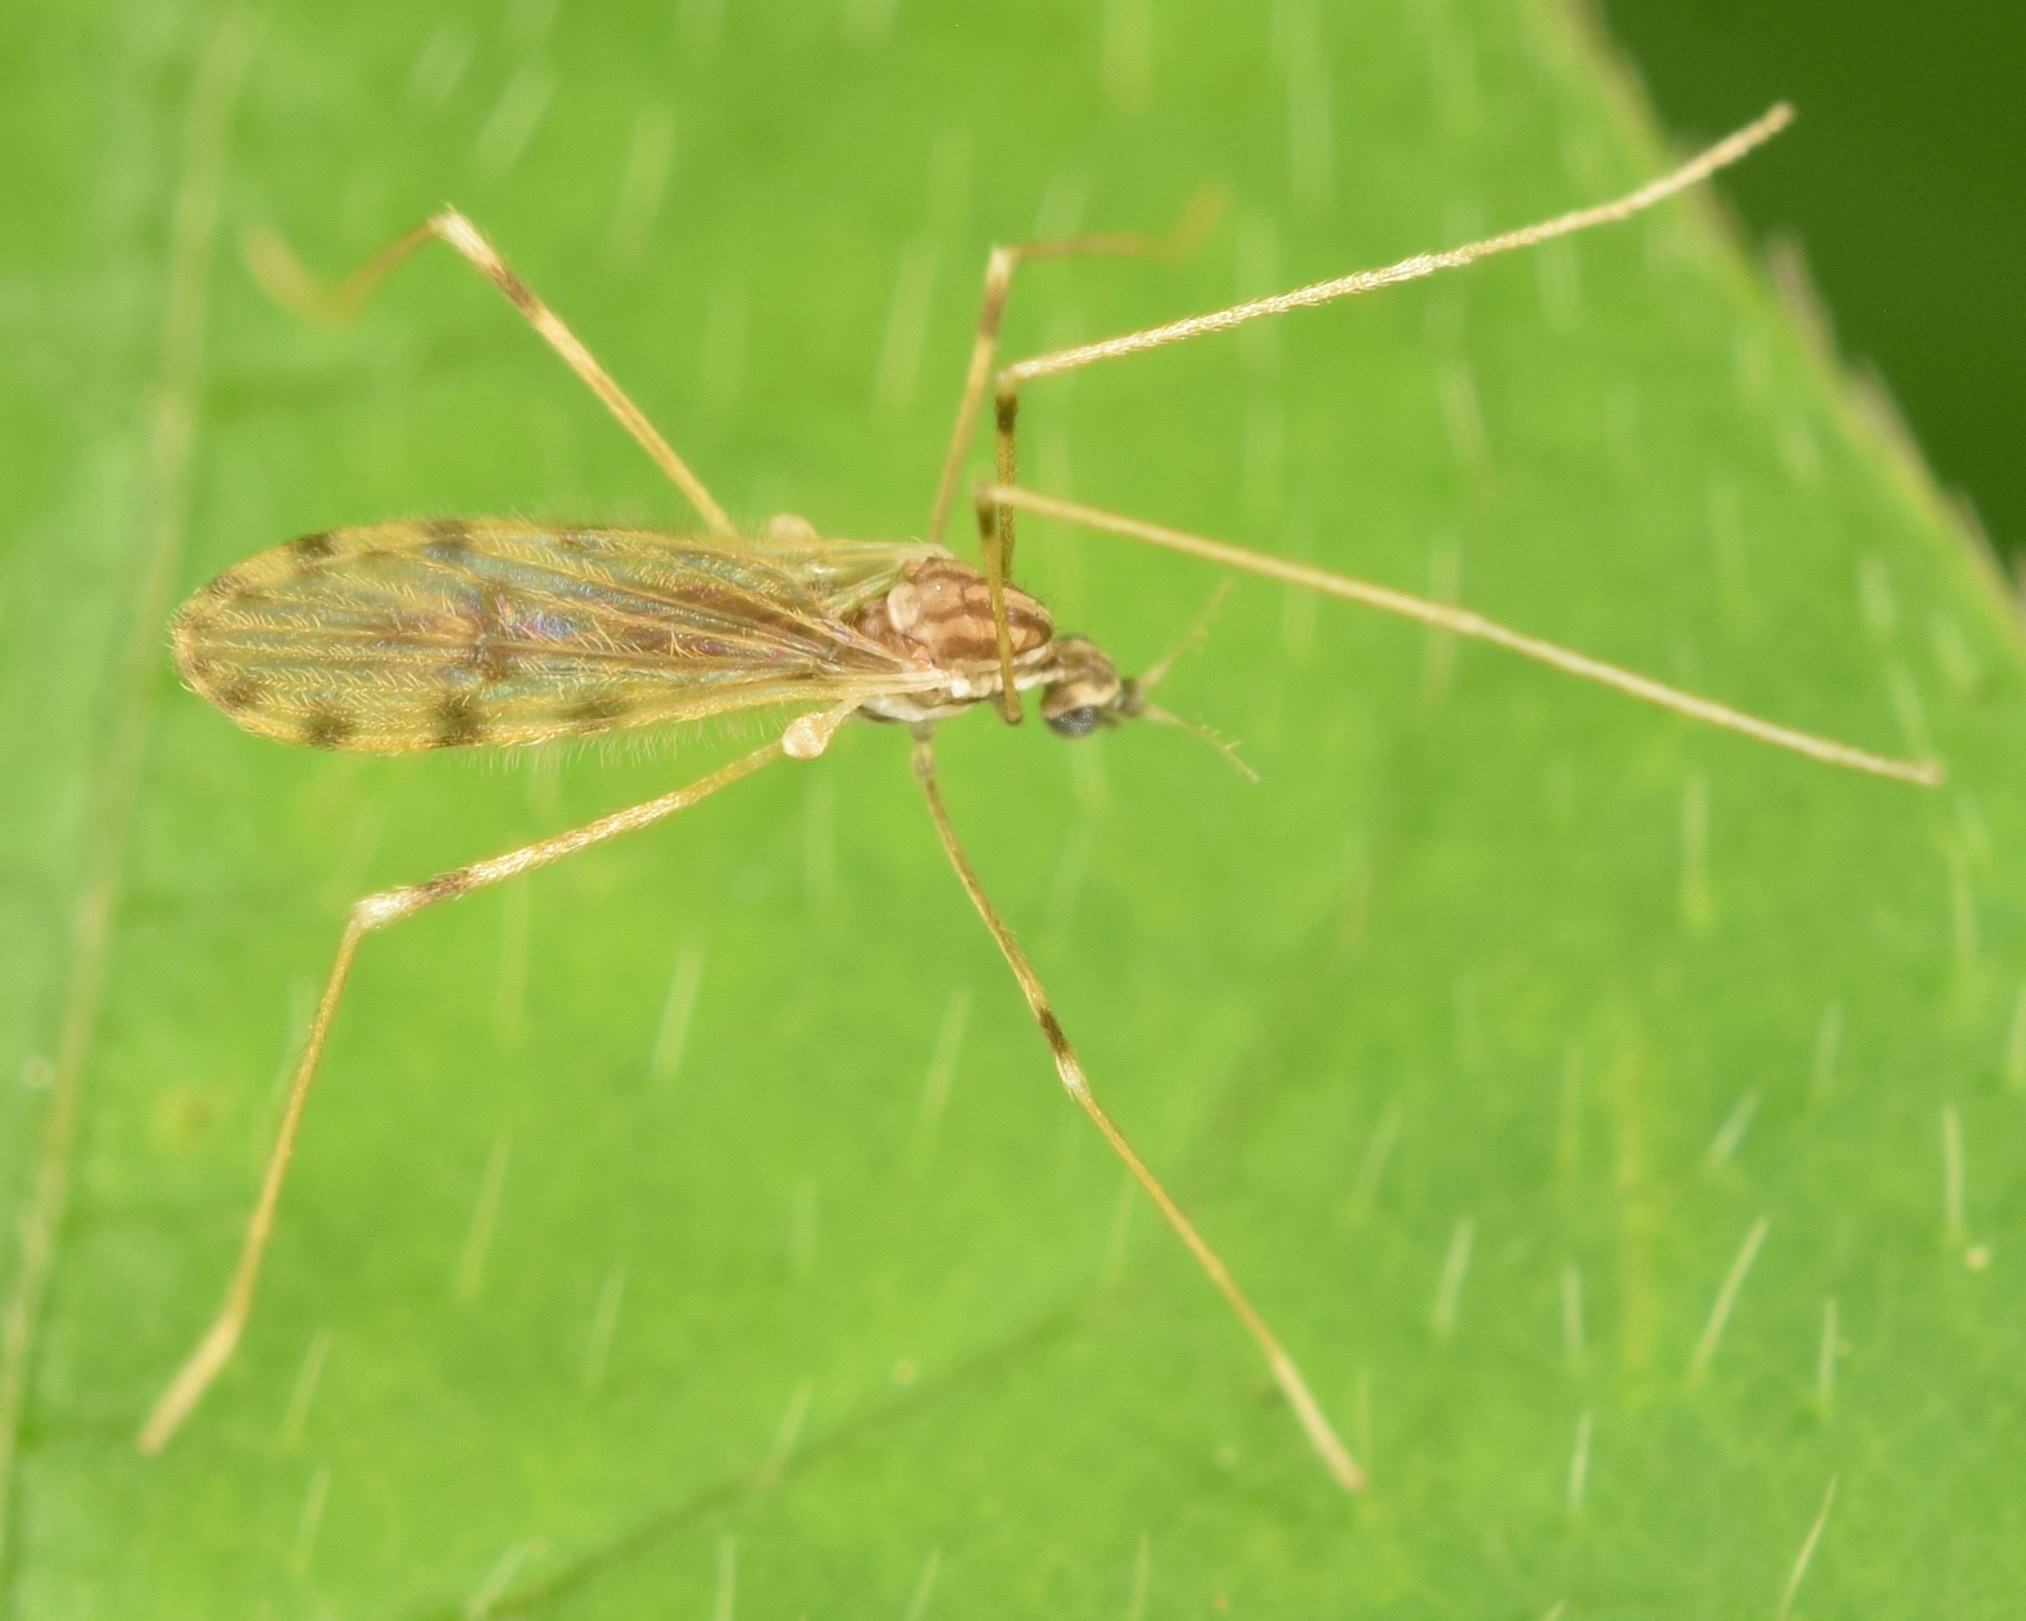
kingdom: Animalia
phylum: Arthropoda
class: Insecta
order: Diptera
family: Limoniidae
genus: Erioptera
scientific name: Erioptera parva
